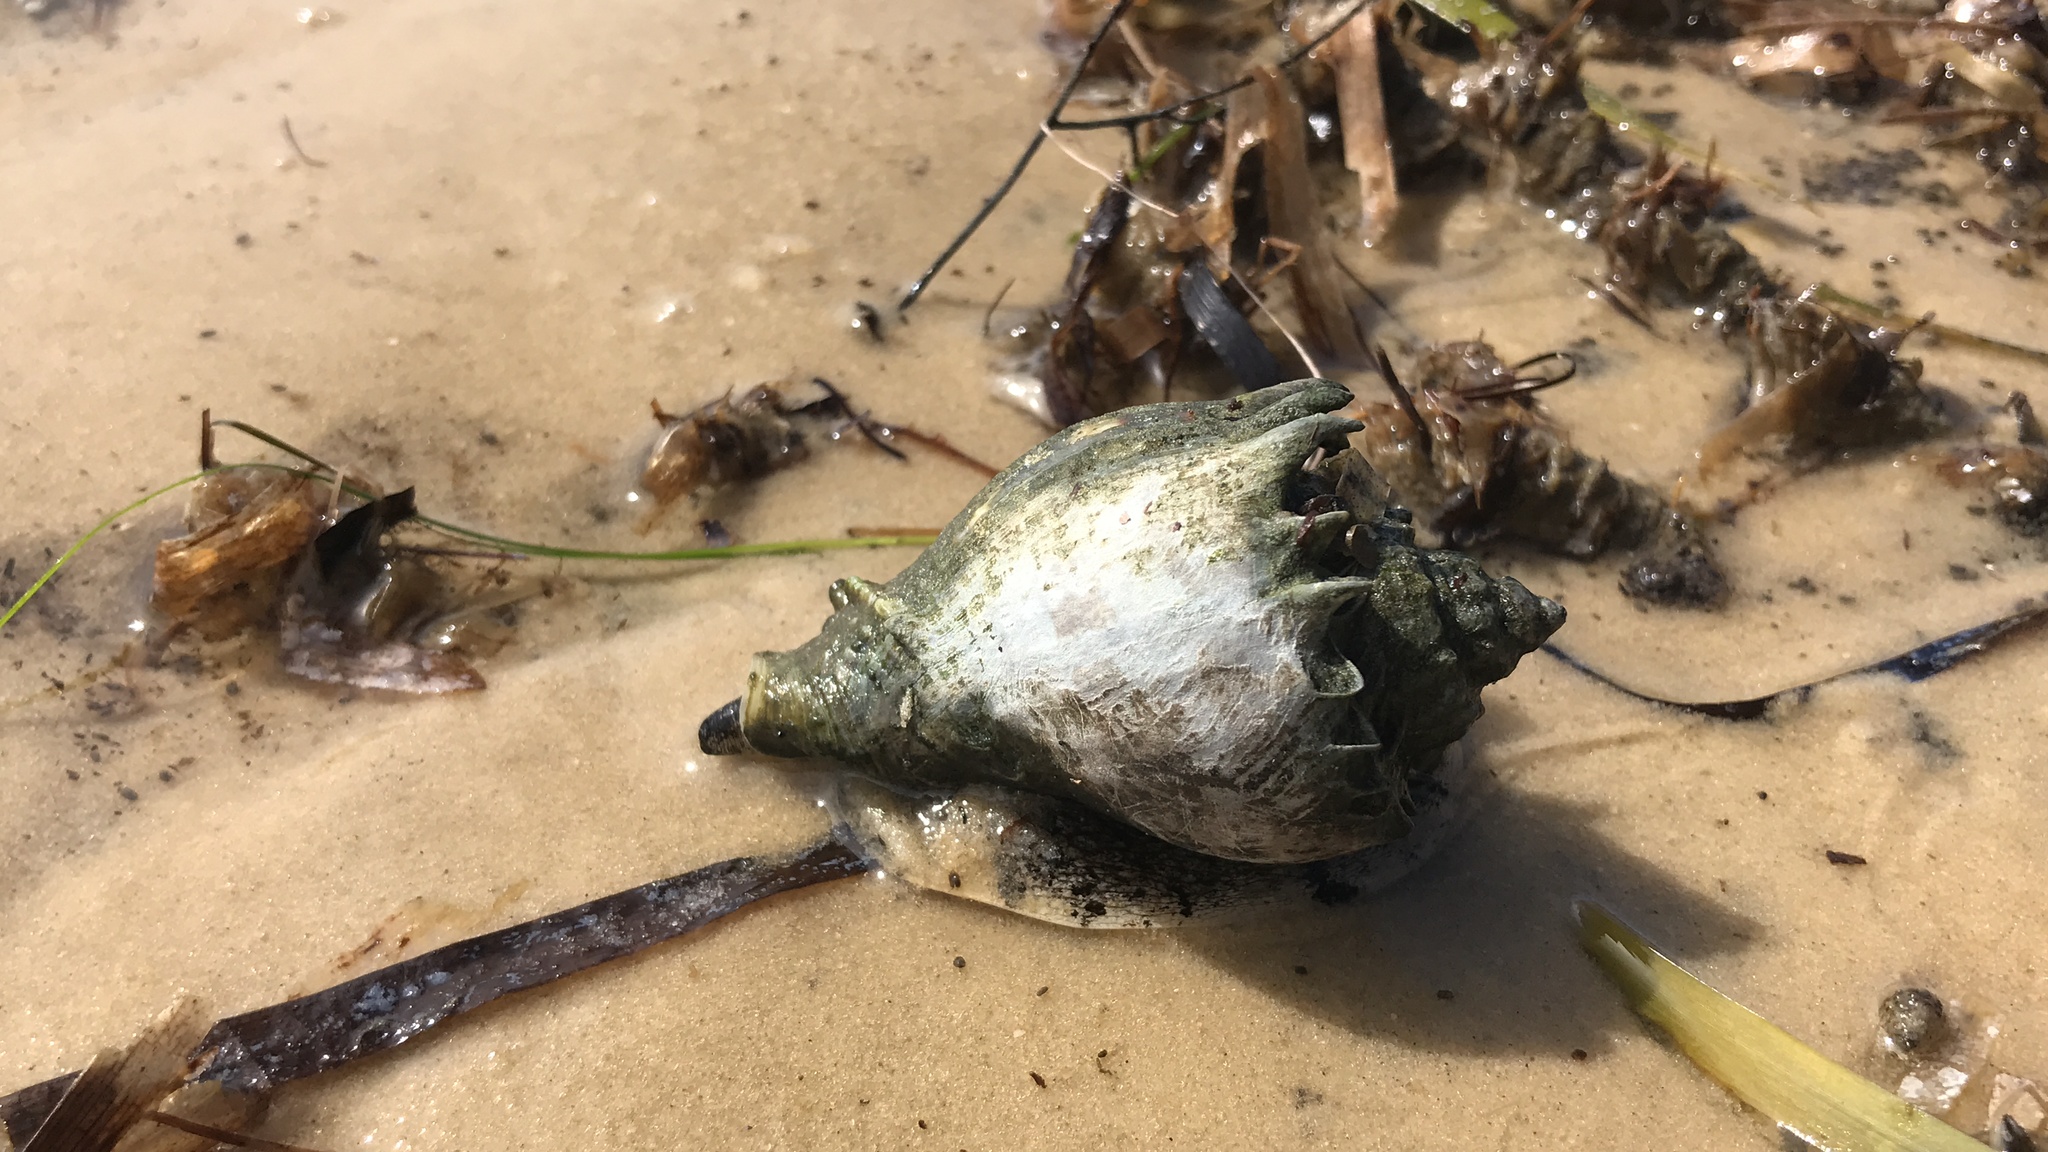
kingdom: Animalia
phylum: Mollusca
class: Gastropoda
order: Neogastropoda
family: Melongenidae
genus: Melongena
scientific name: Melongena corona
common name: American crown conch
